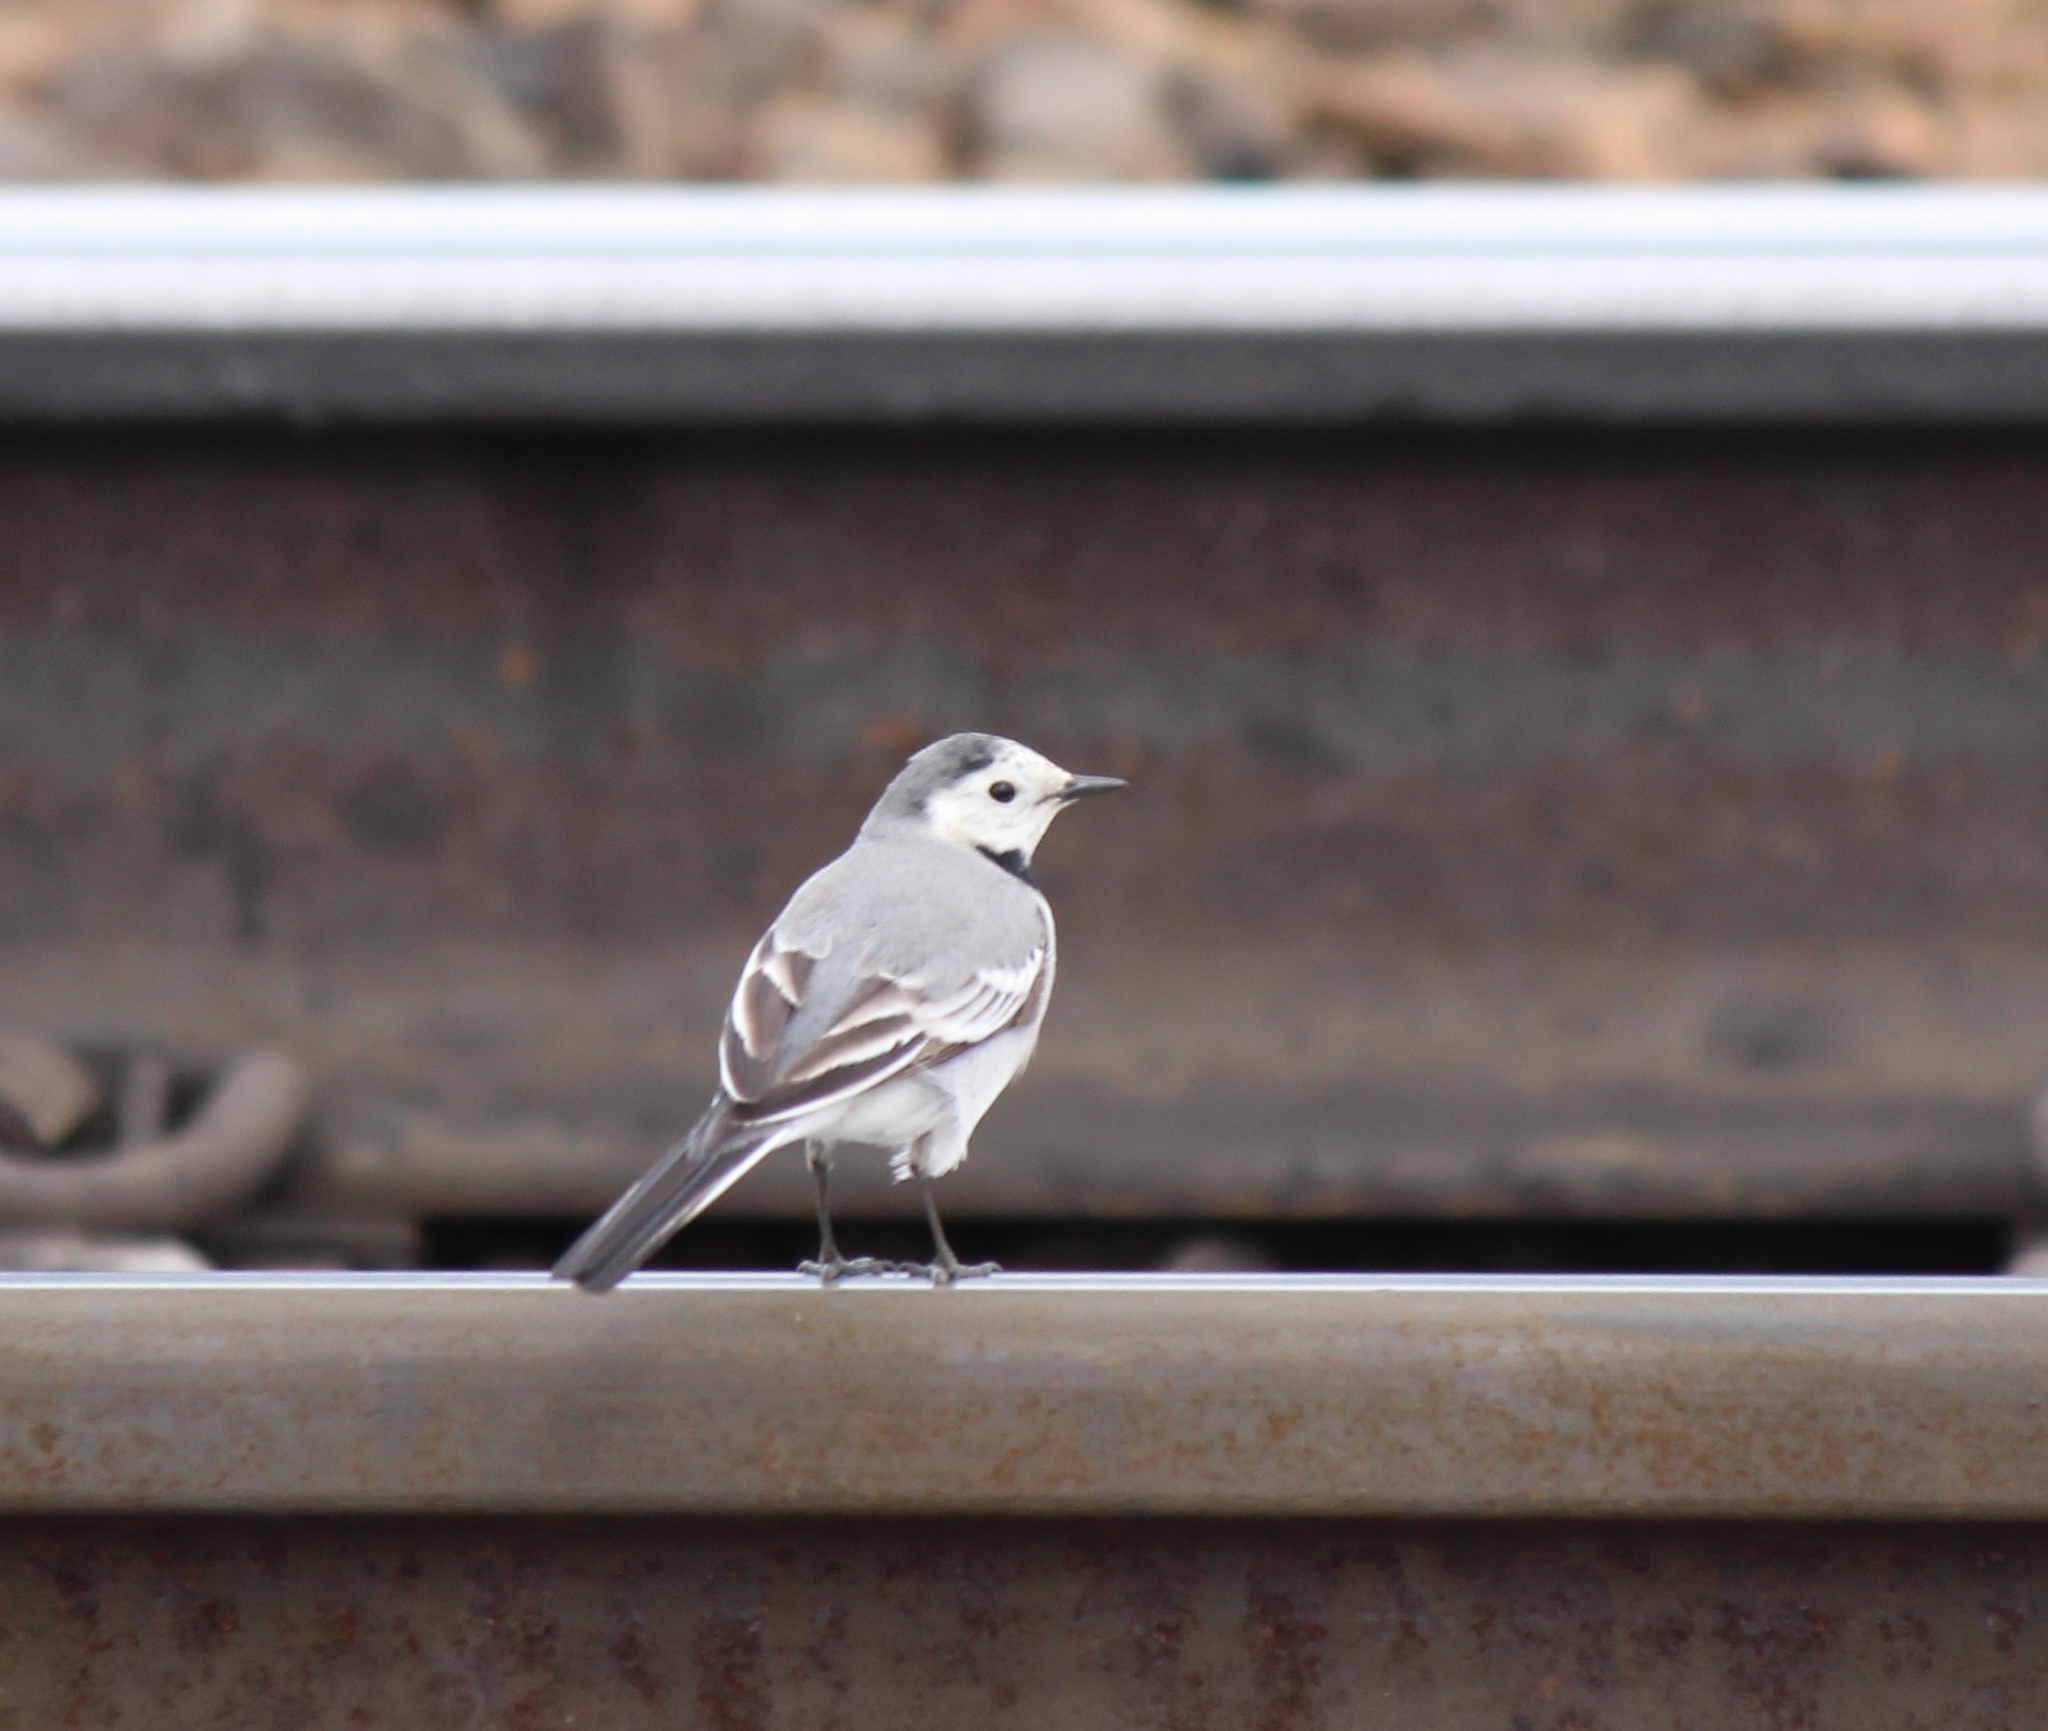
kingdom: Animalia
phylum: Chordata
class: Aves
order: Passeriformes
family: Motacillidae
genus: Motacilla
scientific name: Motacilla alba
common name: White wagtail
